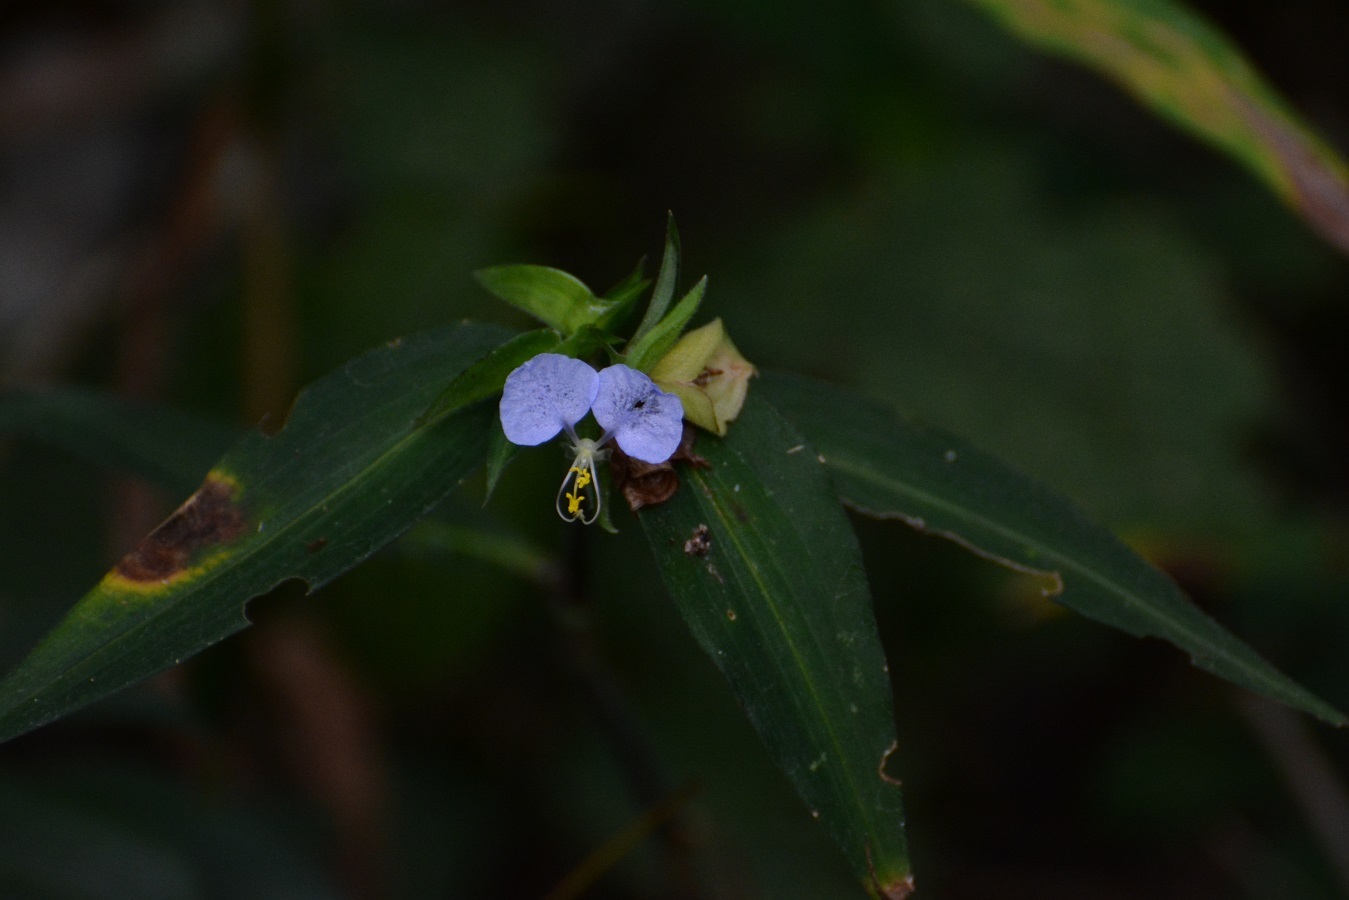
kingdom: Plantae
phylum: Tracheophyta
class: Liliopsida
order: Commelinales
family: Commelinaceae
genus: Commelina
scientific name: Commelina erecta
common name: Blousel blommetjie
